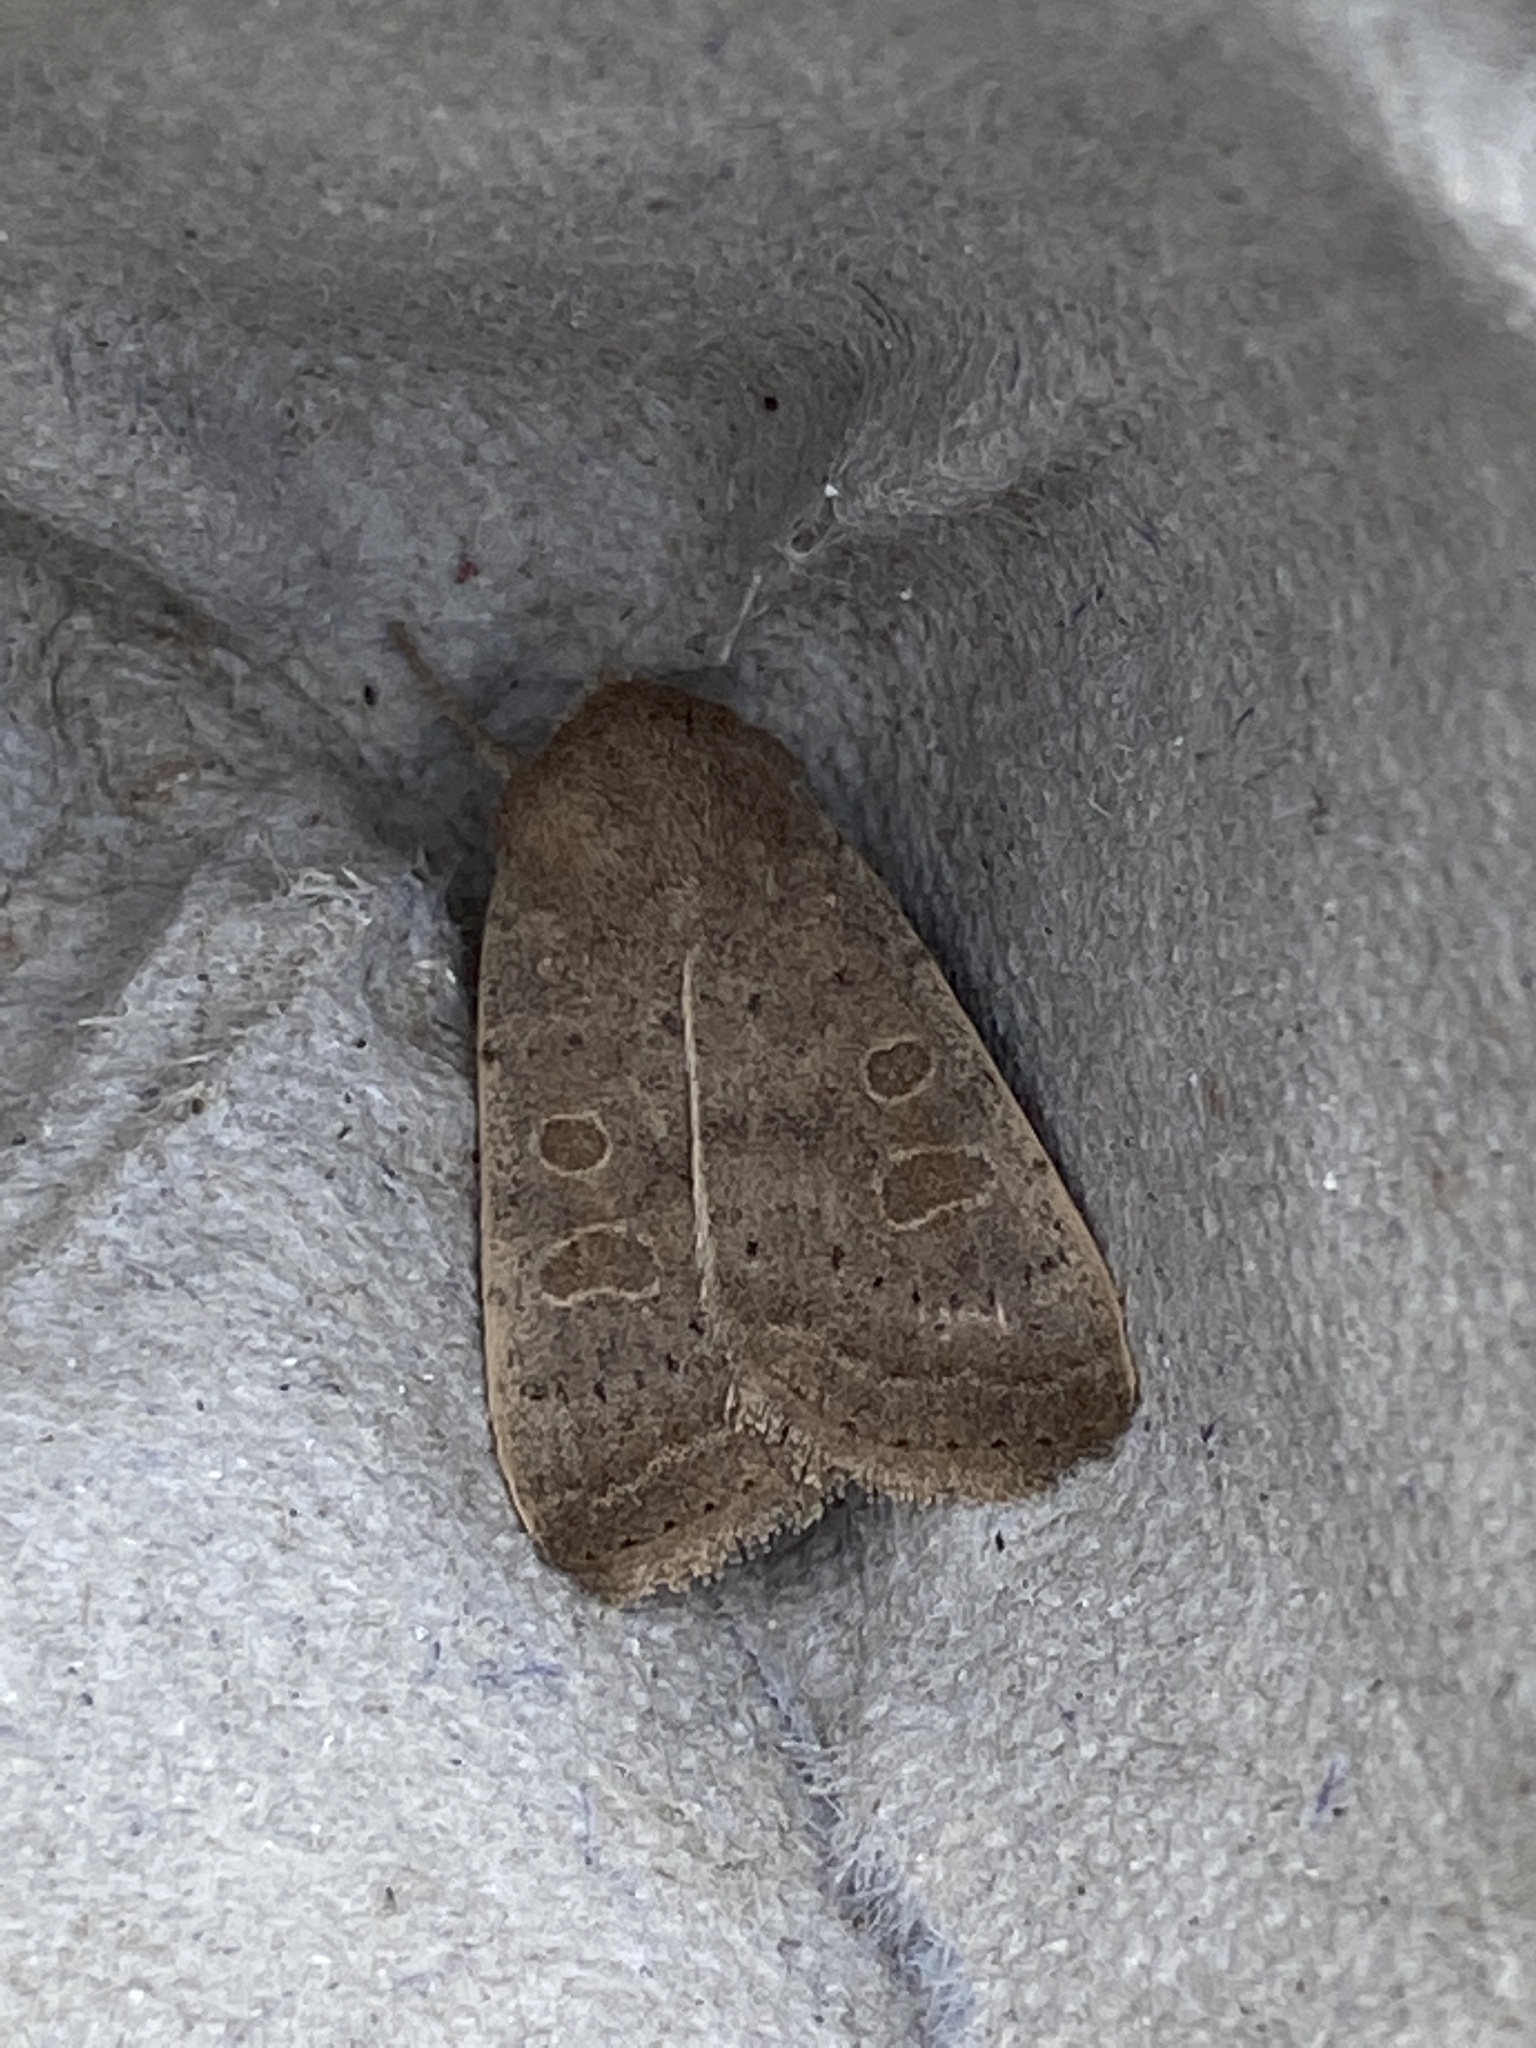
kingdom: Animalia
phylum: Arthropoda
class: Insecta
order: Lepidoptera
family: Noctuidae
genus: Hoplodrina
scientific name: Hoplodrina ambigua
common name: Vine's rustic
